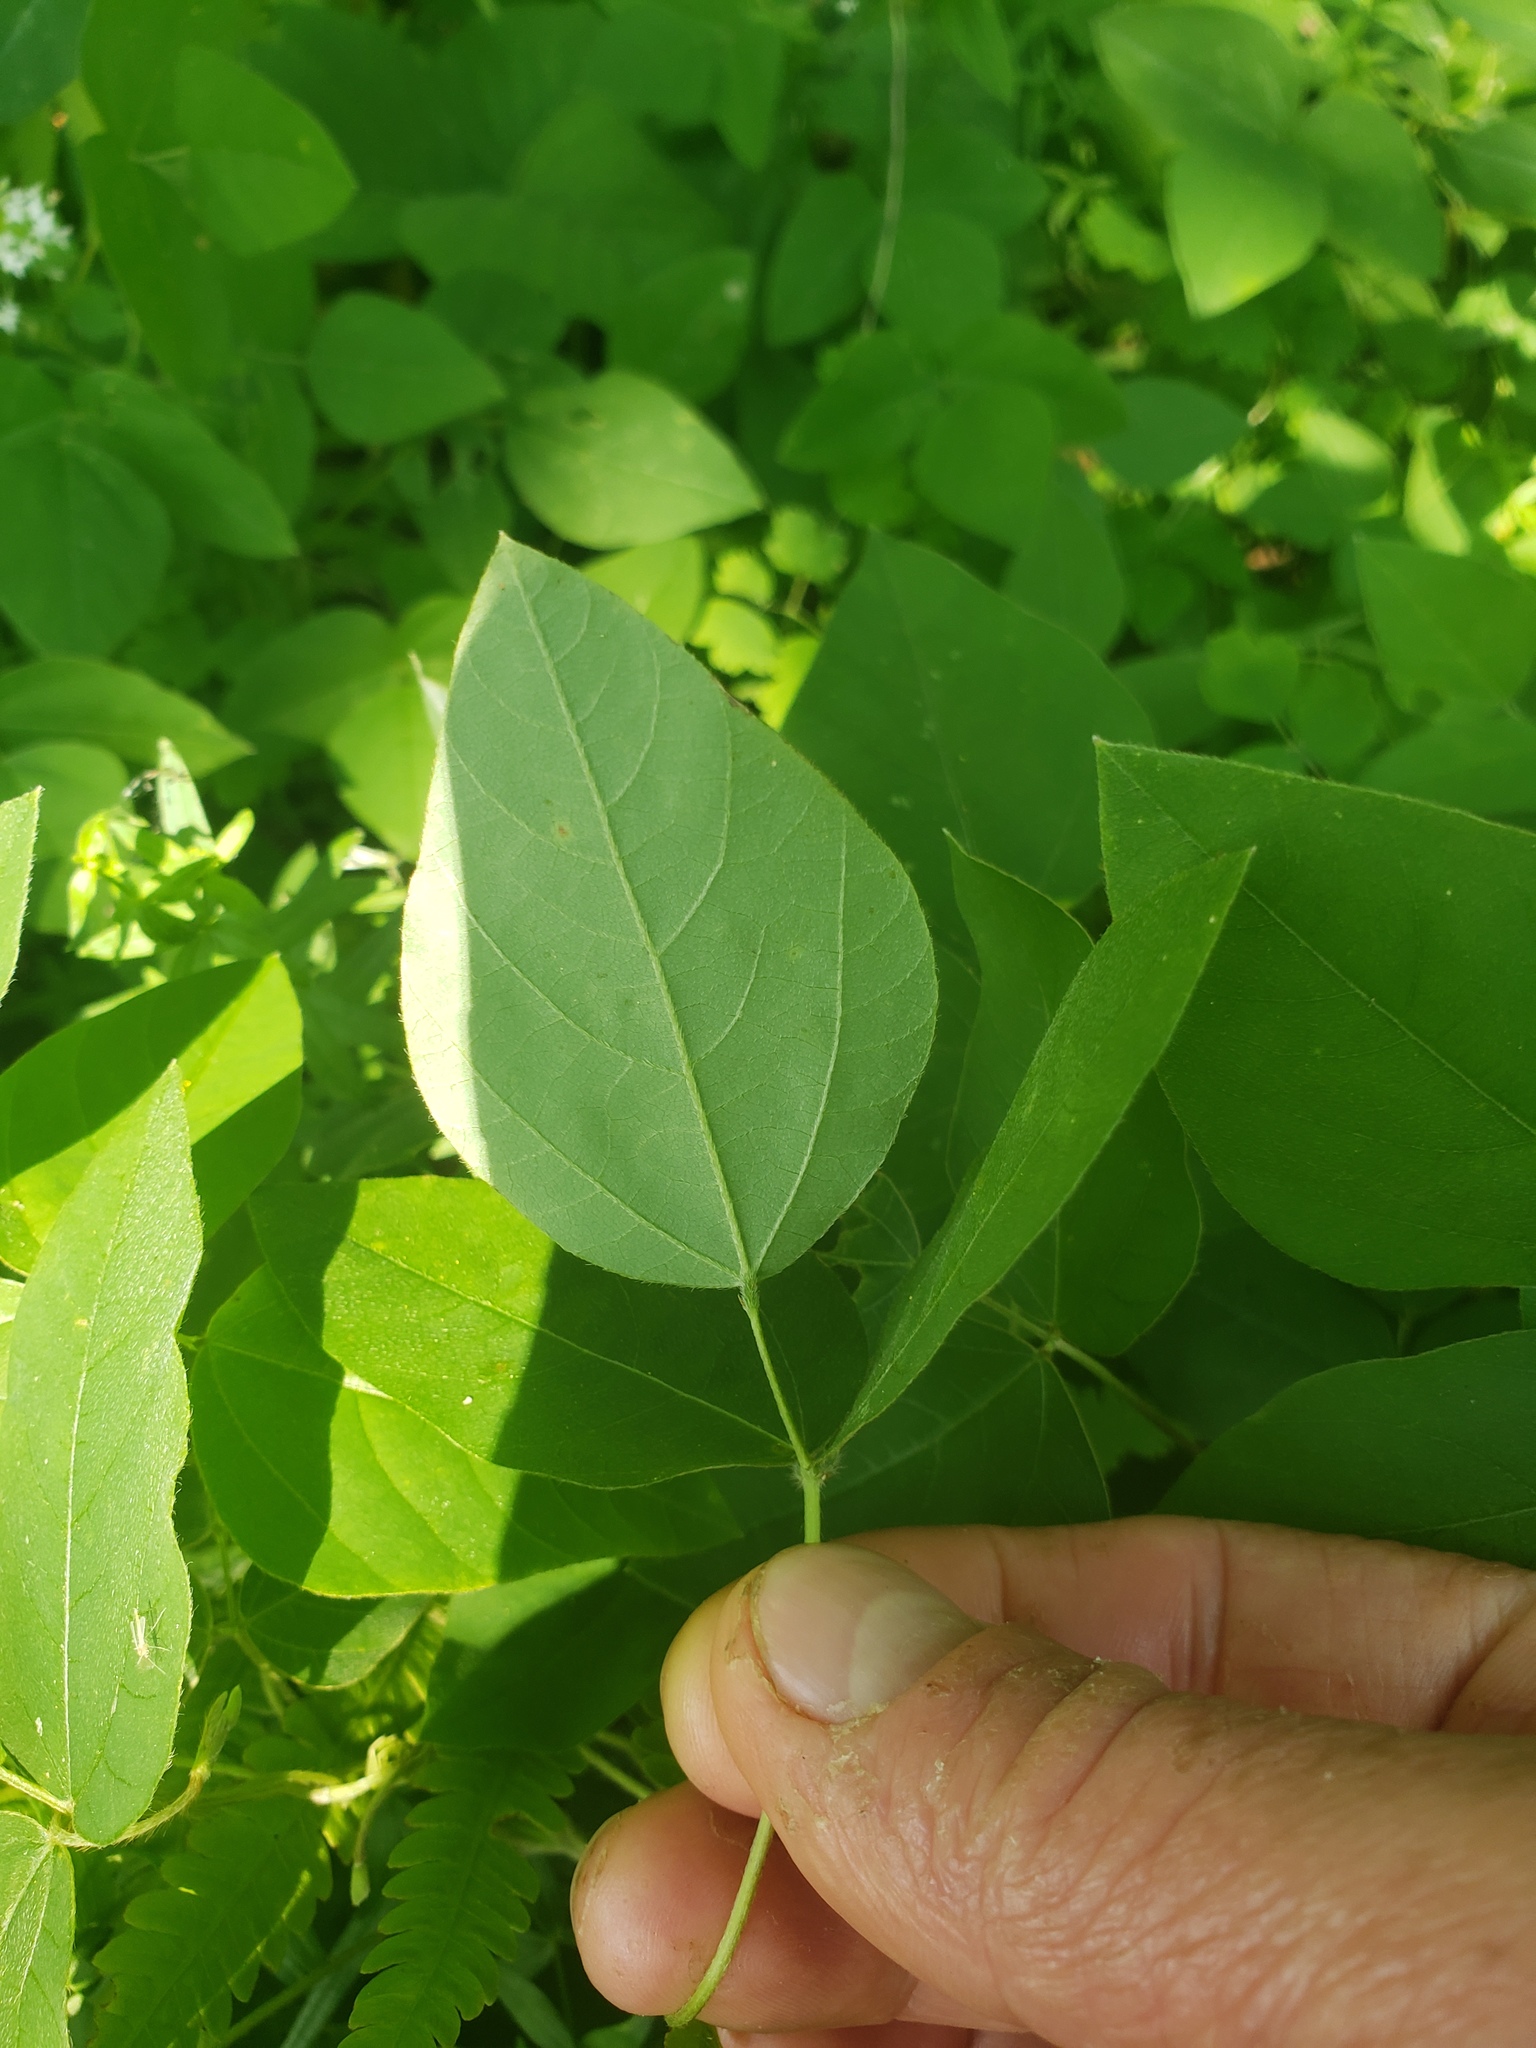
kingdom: Plantae
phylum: Tracheophyta
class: Magnoliopsida
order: Fabales
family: Fabaceae
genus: Amphicarpaea
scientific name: Amphicarpaea bracteata
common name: American hog peanut
